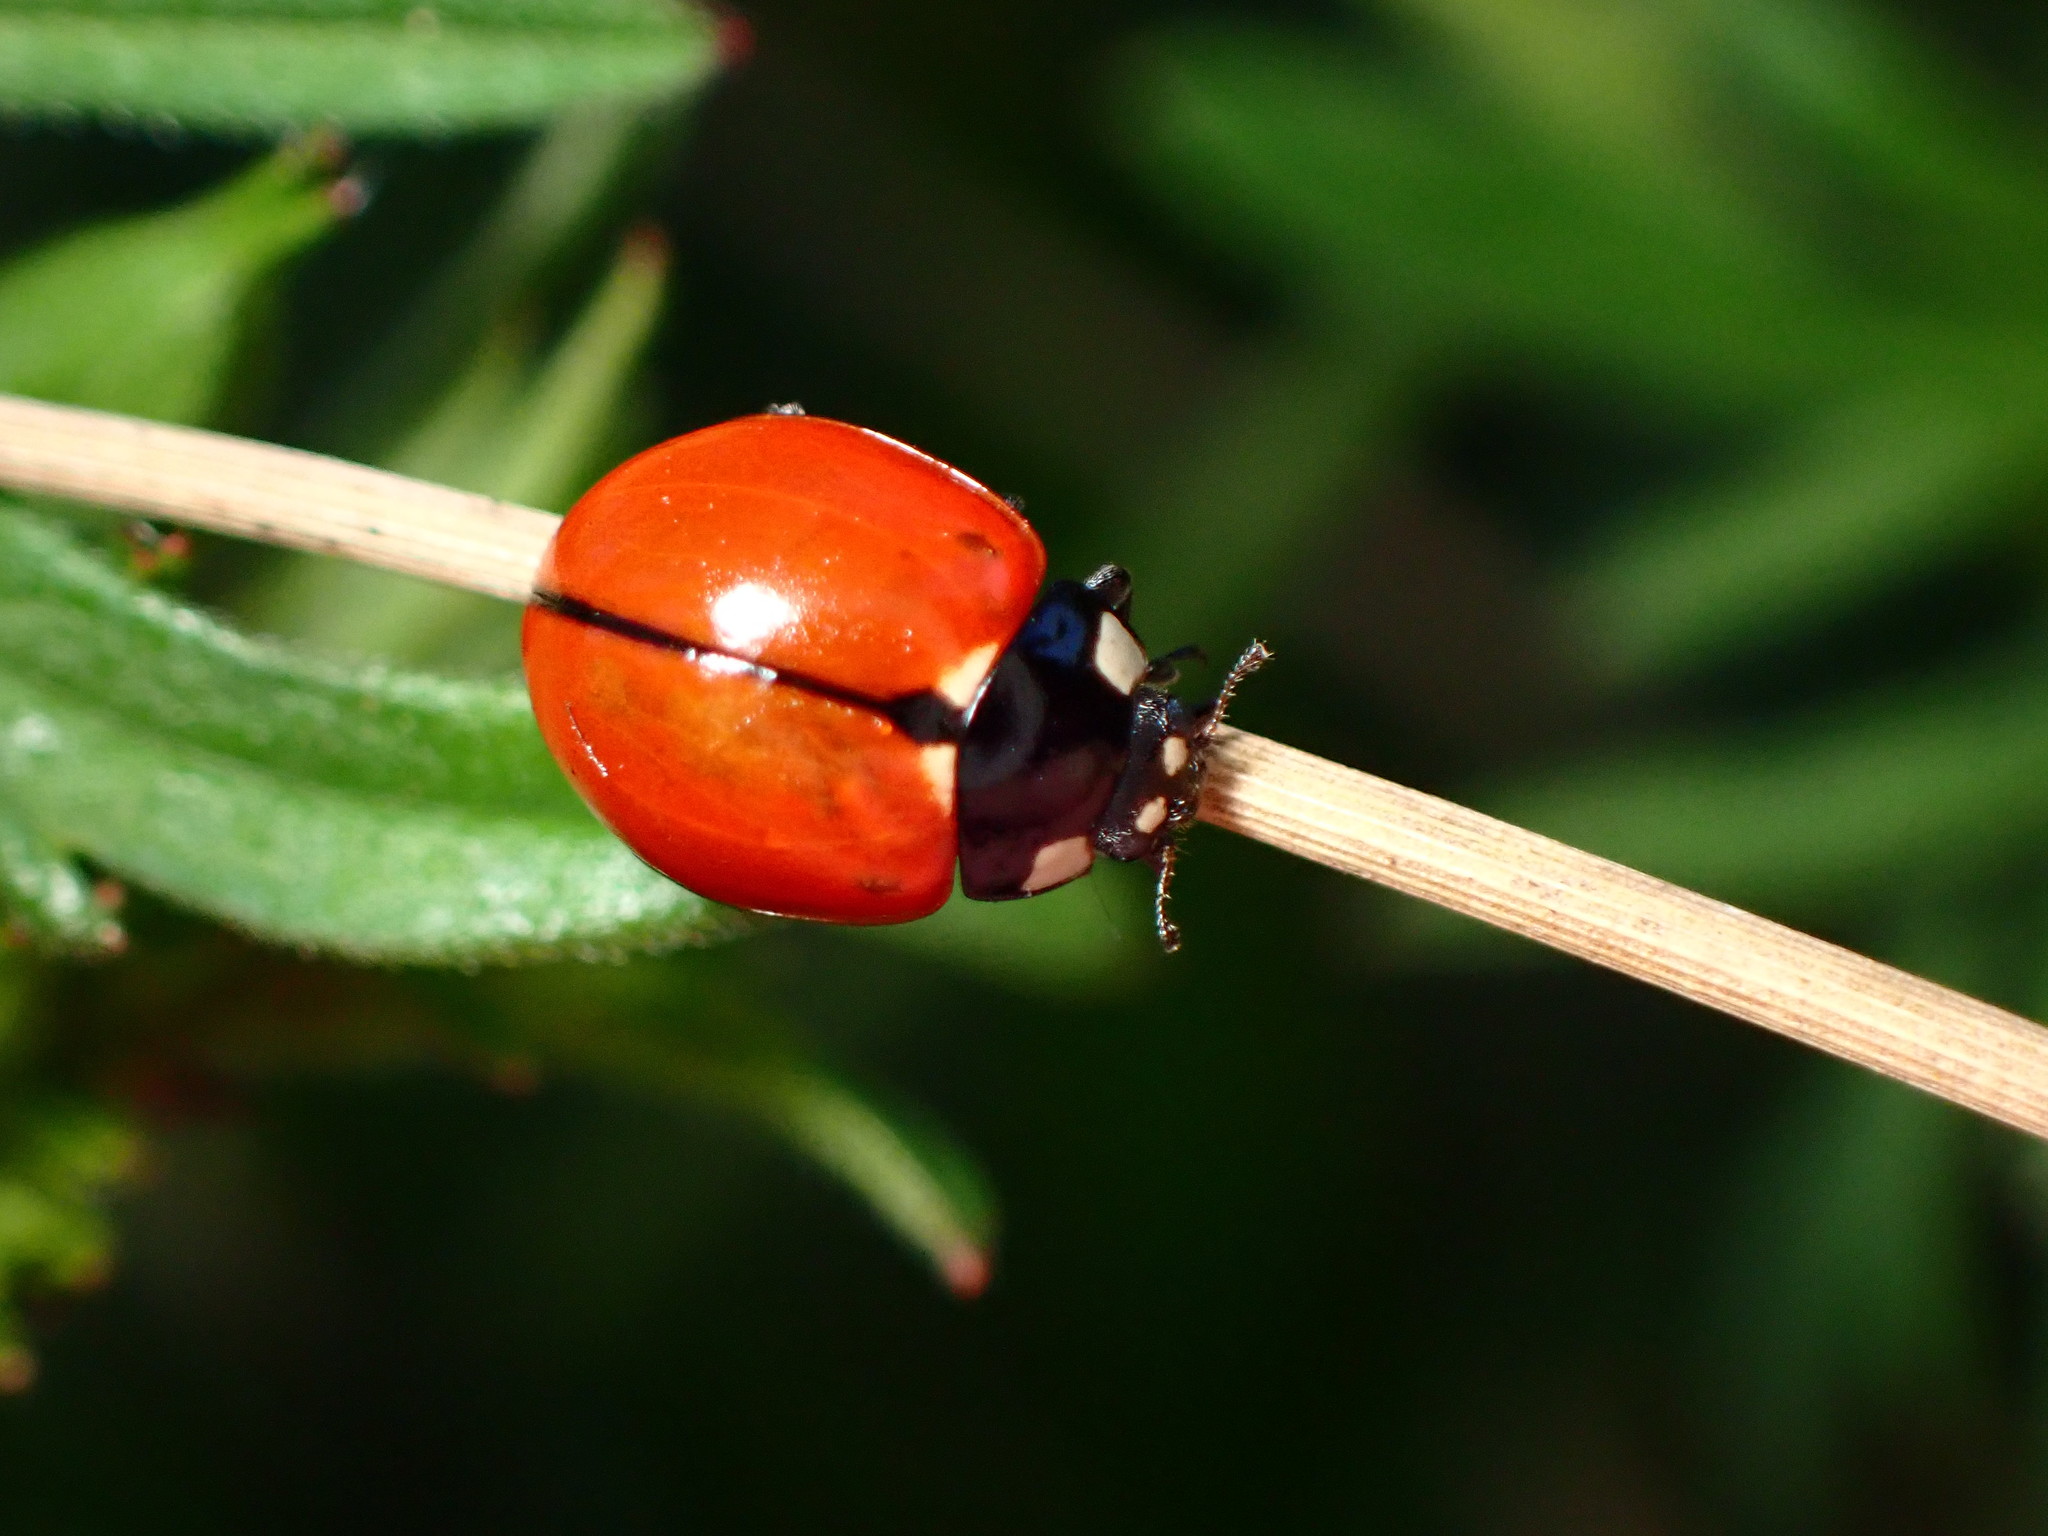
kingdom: Animalia
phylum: Arthropoda
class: Insecta
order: Coleoptera
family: Coccinellidae
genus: Coccinella
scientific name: Coccinella californica
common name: Lady beetle
